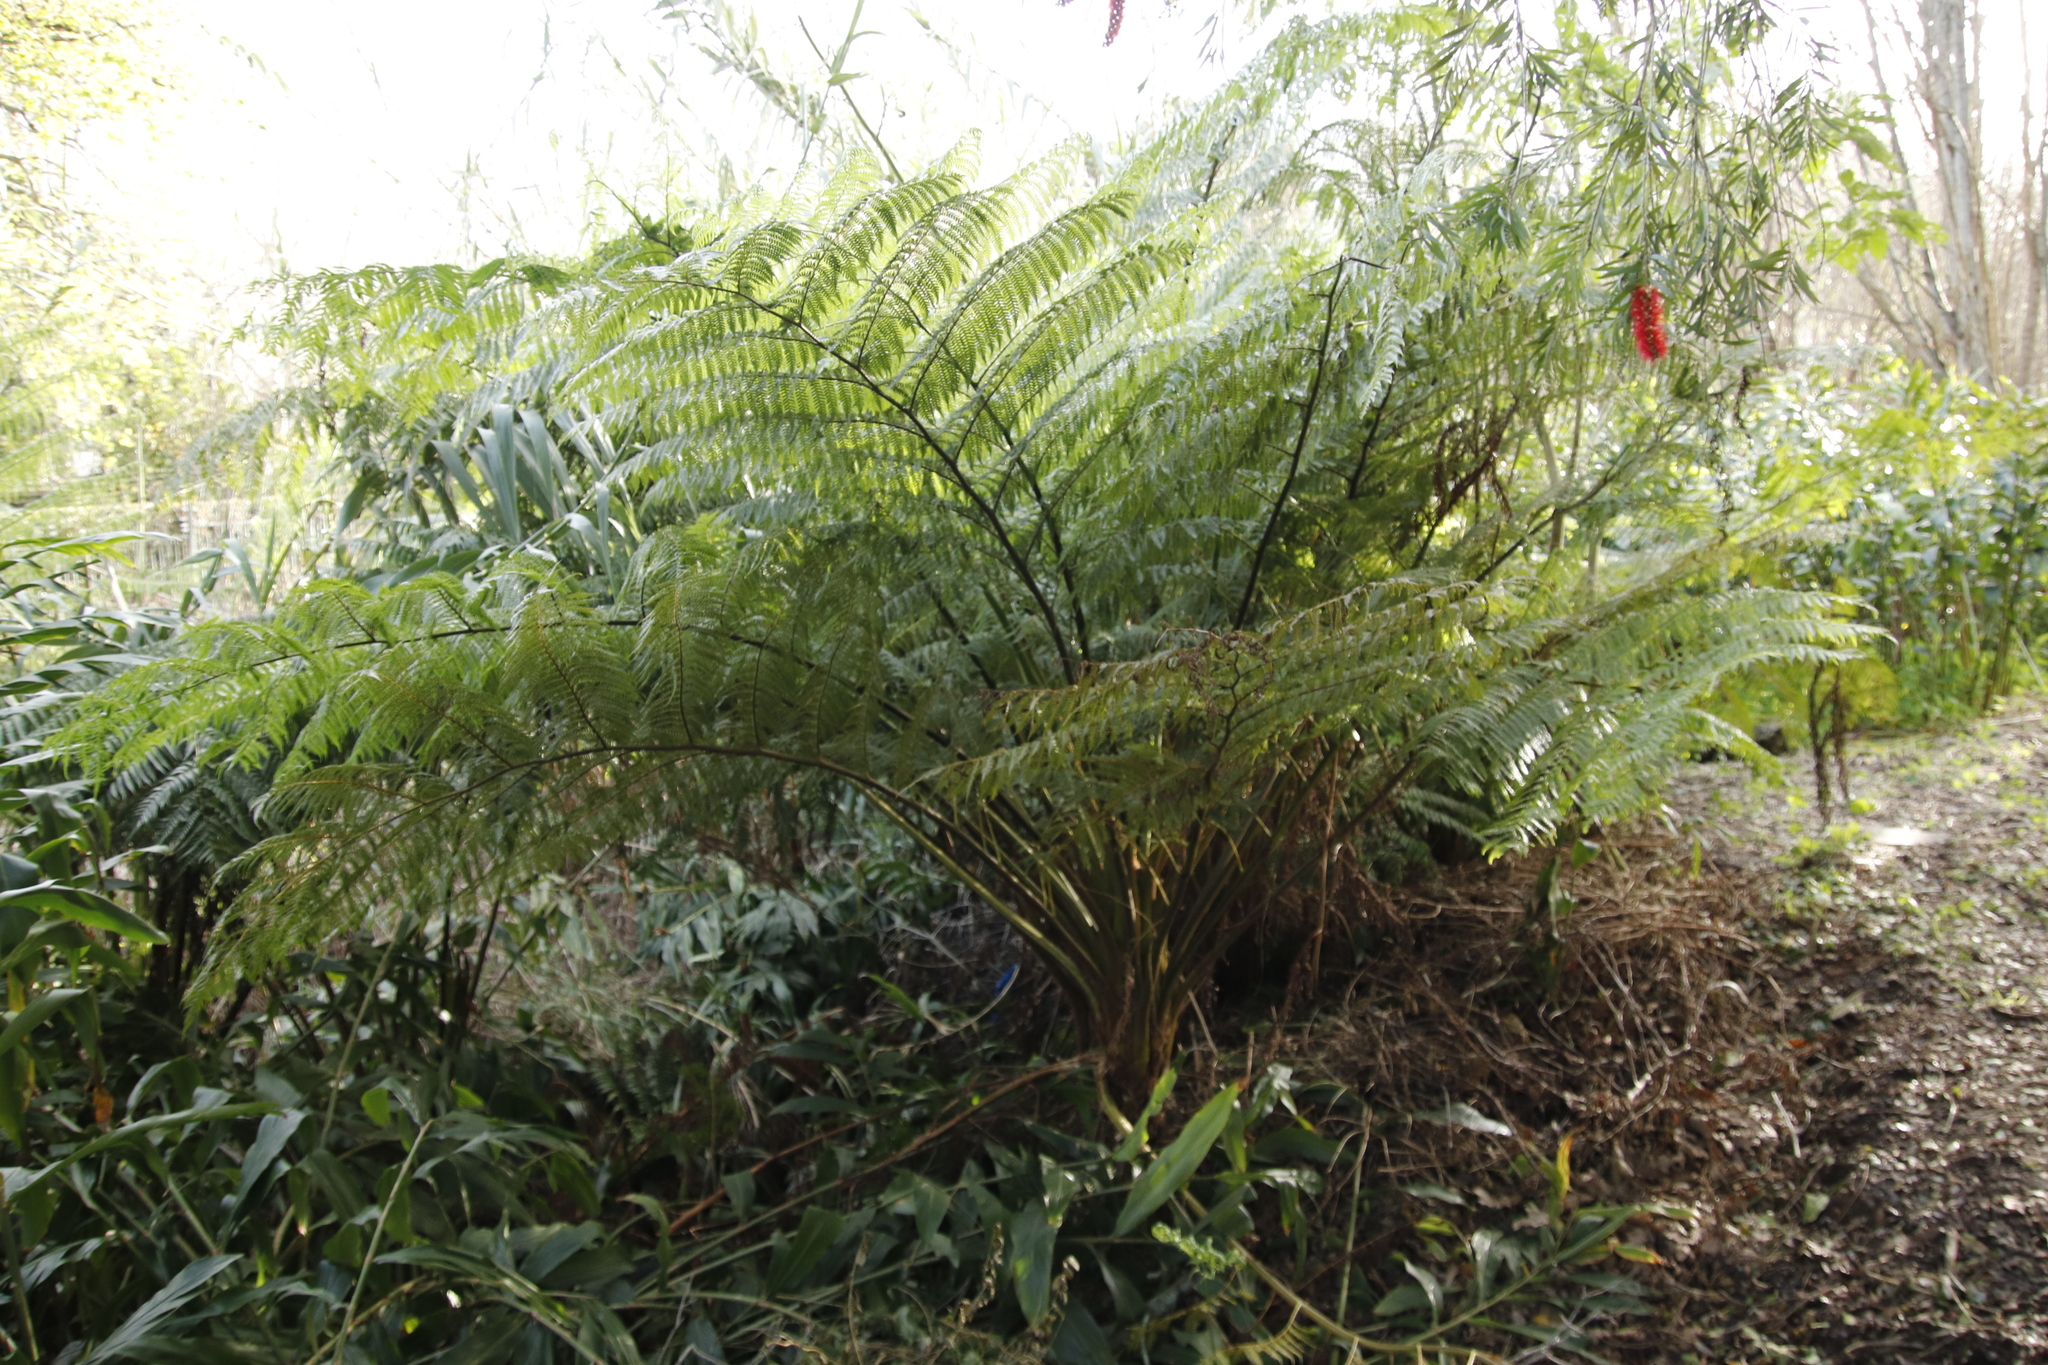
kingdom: Plantae
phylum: Tracheophyta
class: Polypodiopsida
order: Cyatheales
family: Cyatheaceae
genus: Sphaeropteris
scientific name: Sphaeropteris cooperi
